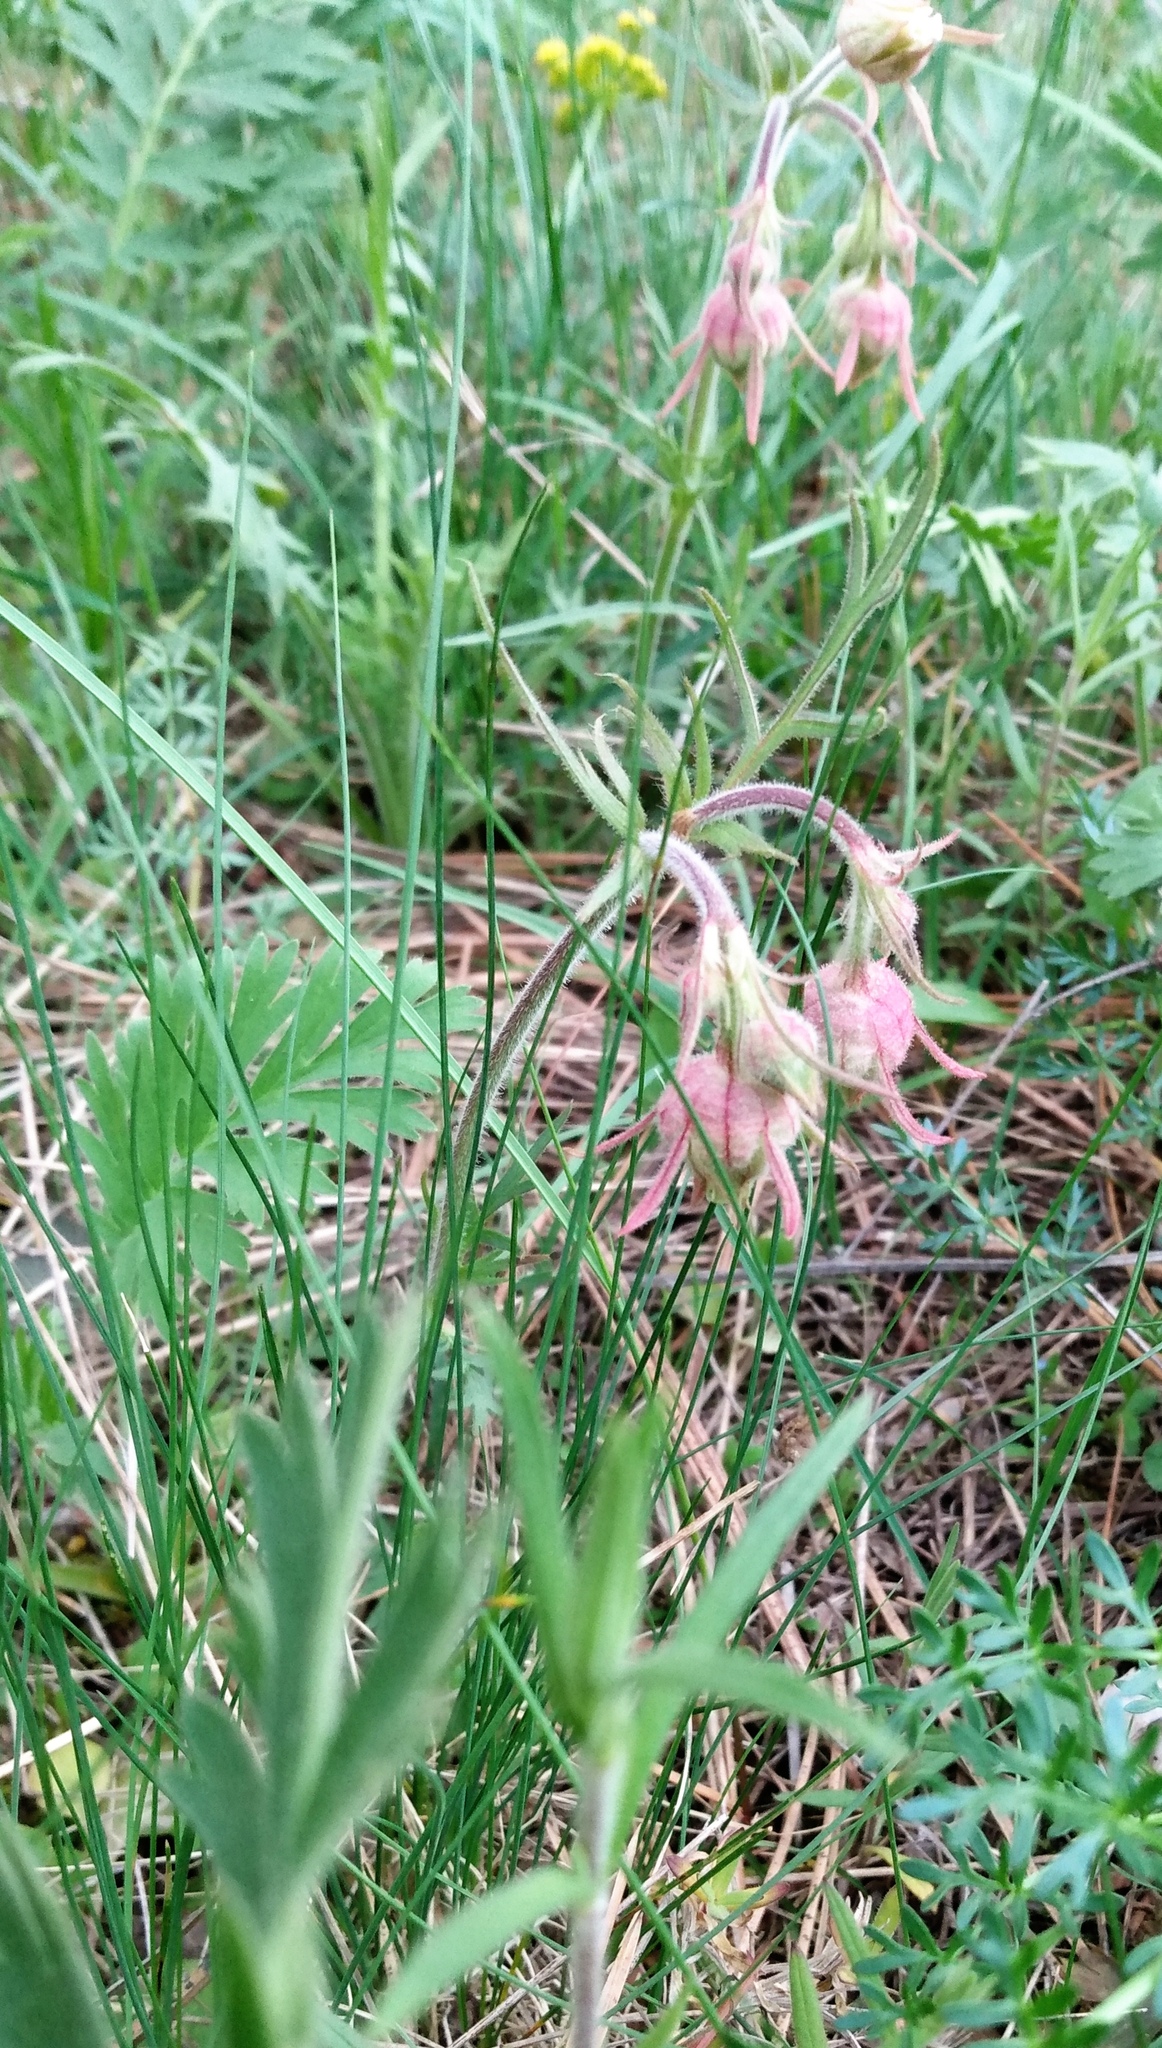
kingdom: Plantae
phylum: Tracheophyta
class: Magnoliopsida
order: Rosales
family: Rosaceae
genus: Geum
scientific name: Geum triflorum
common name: Old man's whiskers
